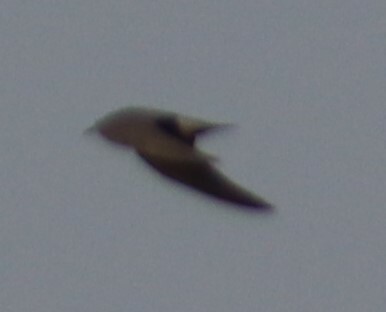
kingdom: Animalia
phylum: Chordata
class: Aves
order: Charadriiformes
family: Laridae
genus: Chlidonias
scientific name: Chlidonias niger
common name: Black tern
